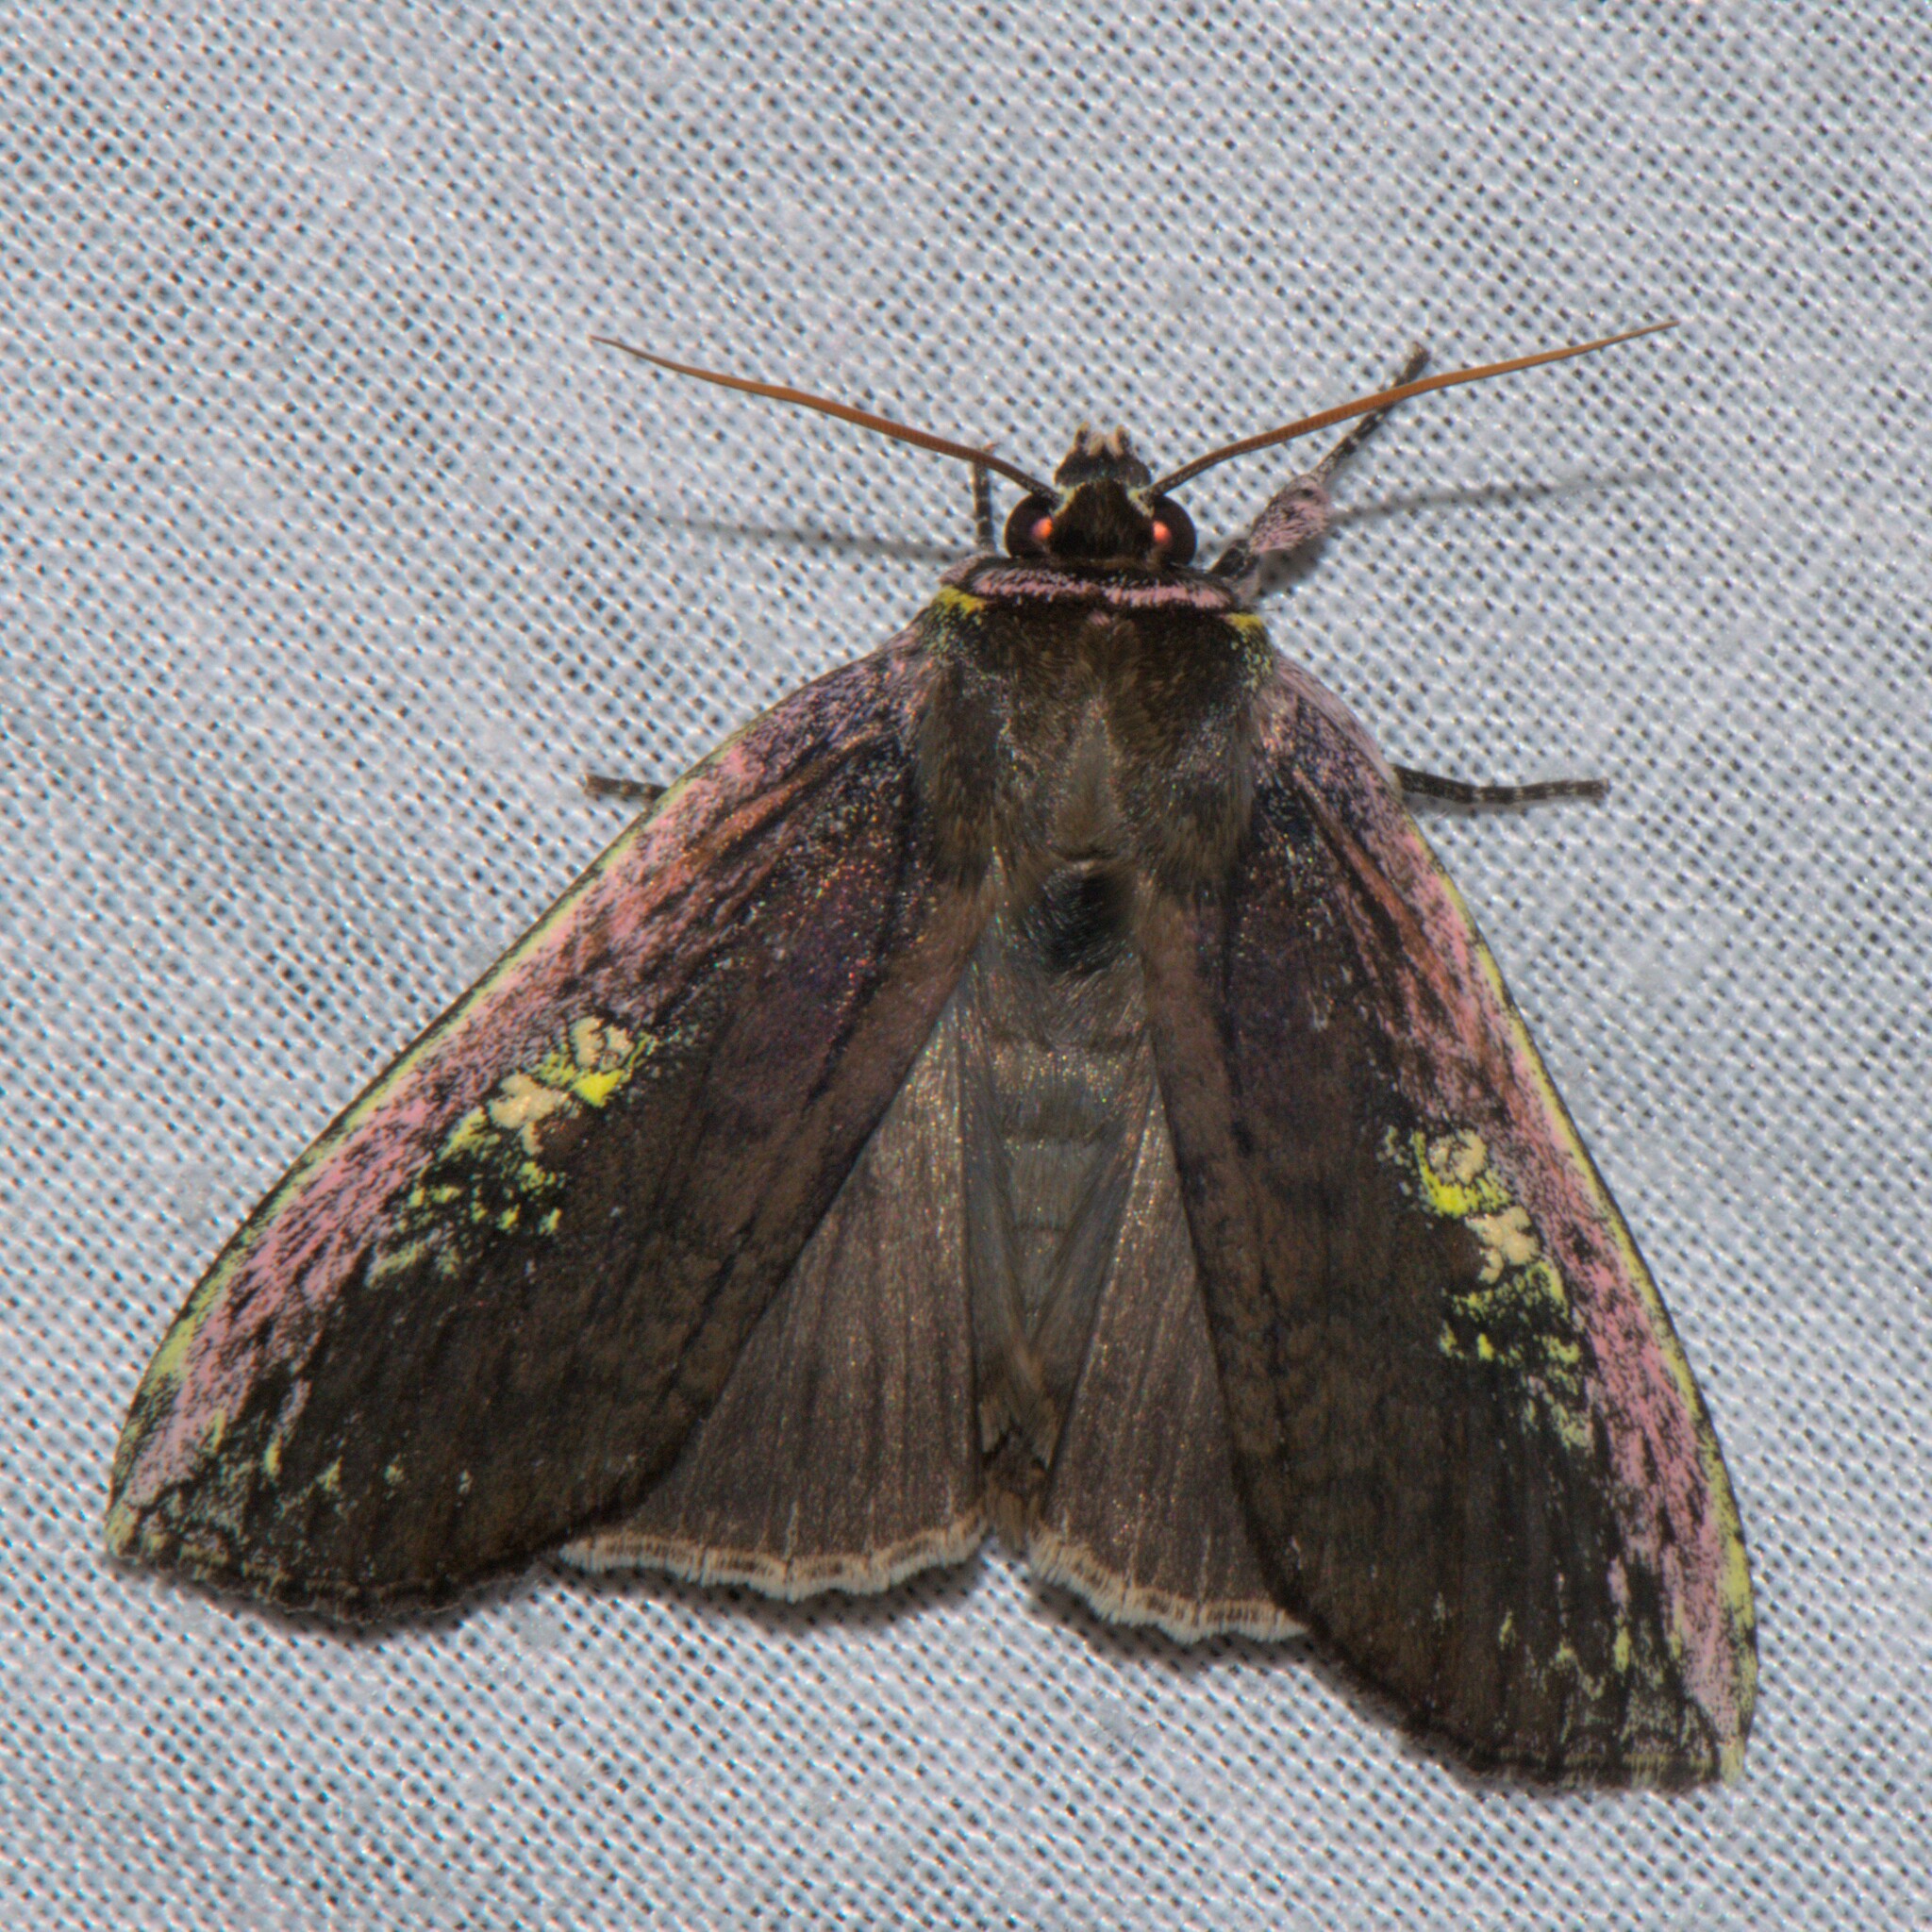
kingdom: Animalia
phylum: Arthropoda
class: Insecta
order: Lepidoptera
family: Drepanidae
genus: Tethea
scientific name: Tethea oberthuri
